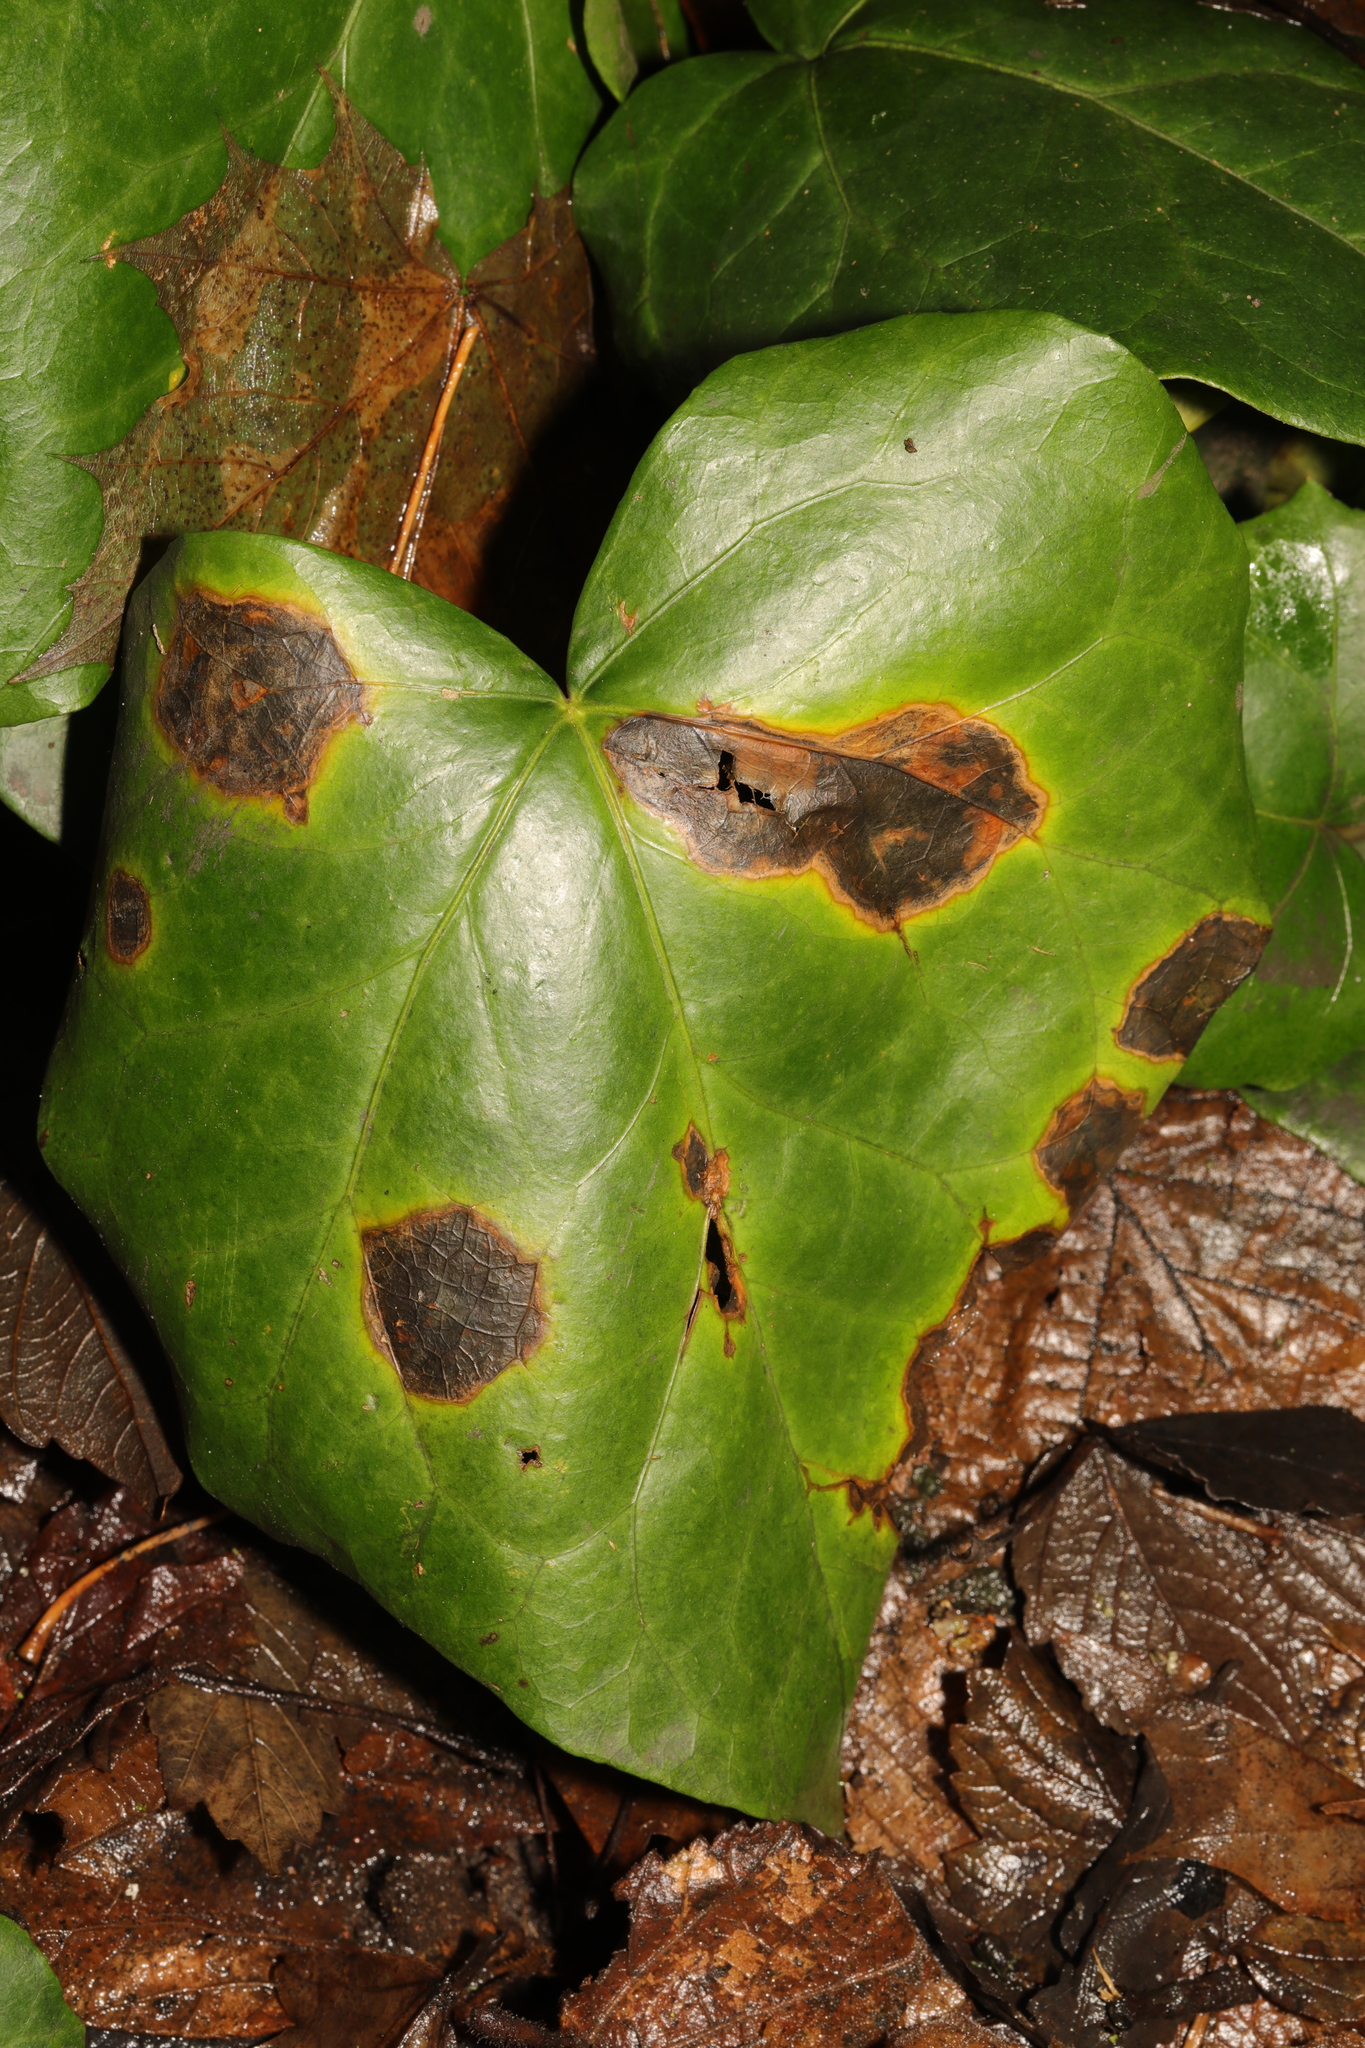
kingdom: Fungi
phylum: Ascomycota
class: Dothideomycetes
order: Pleosporales
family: Didymellaceae
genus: Boeremia
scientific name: Boeremia hedericola
